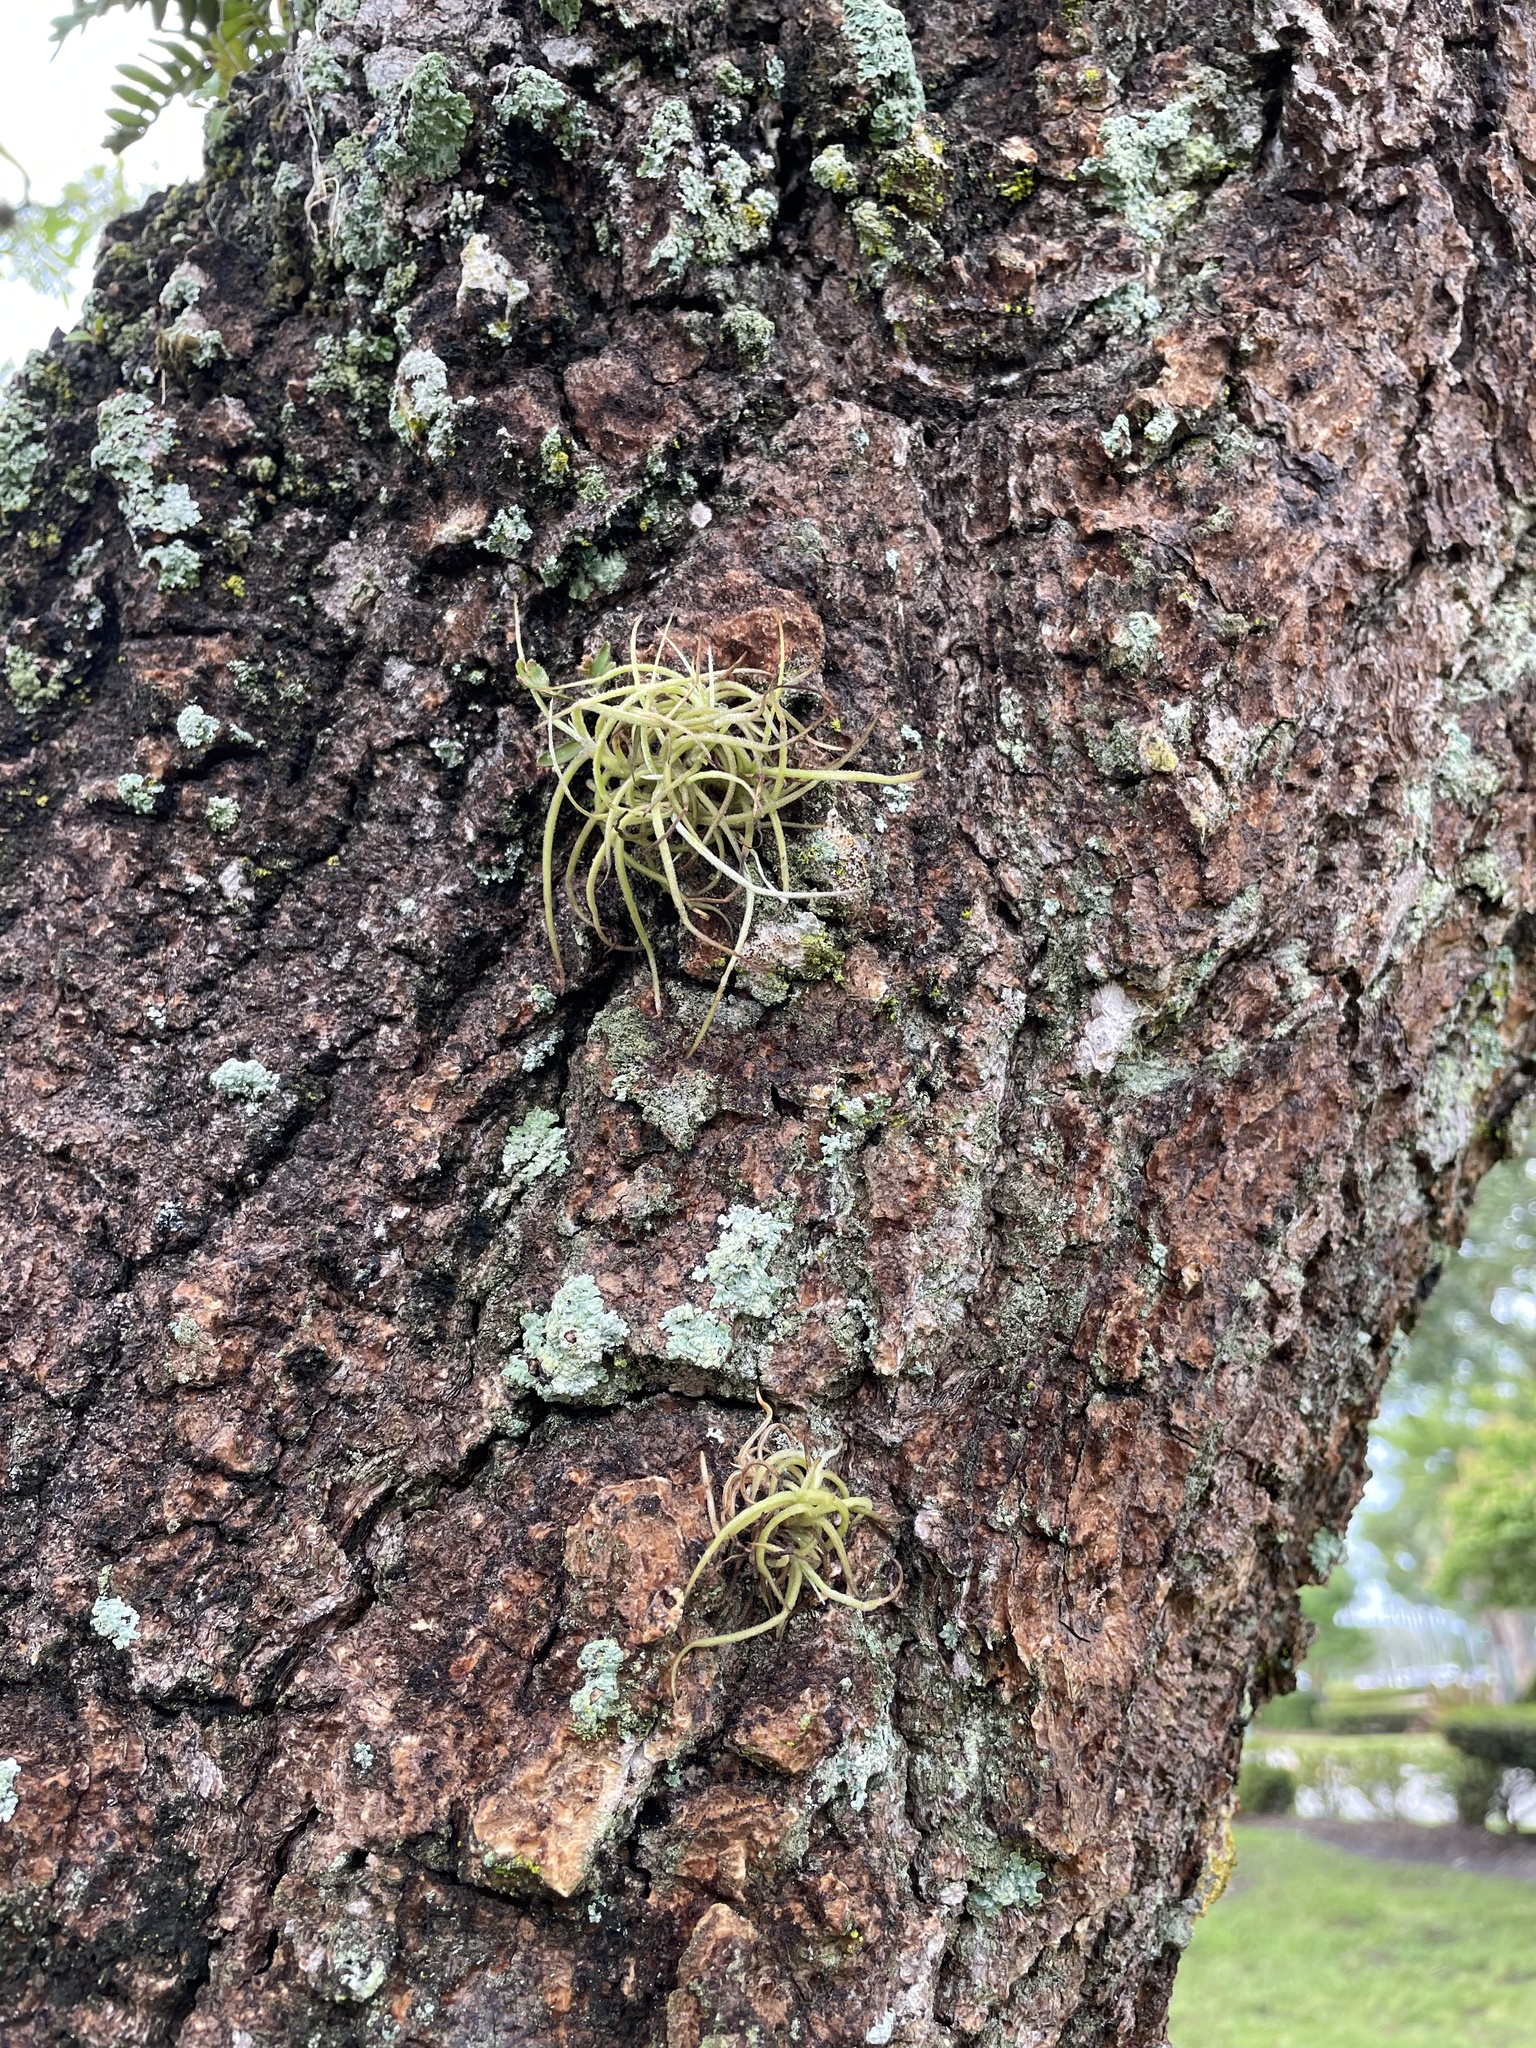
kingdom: Plantae
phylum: Tracheophyta
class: Liliopsida
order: Poales
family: Bromeliaceae
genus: Tillandsia
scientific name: Tillandsia recurvata
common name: Small ballmoss
